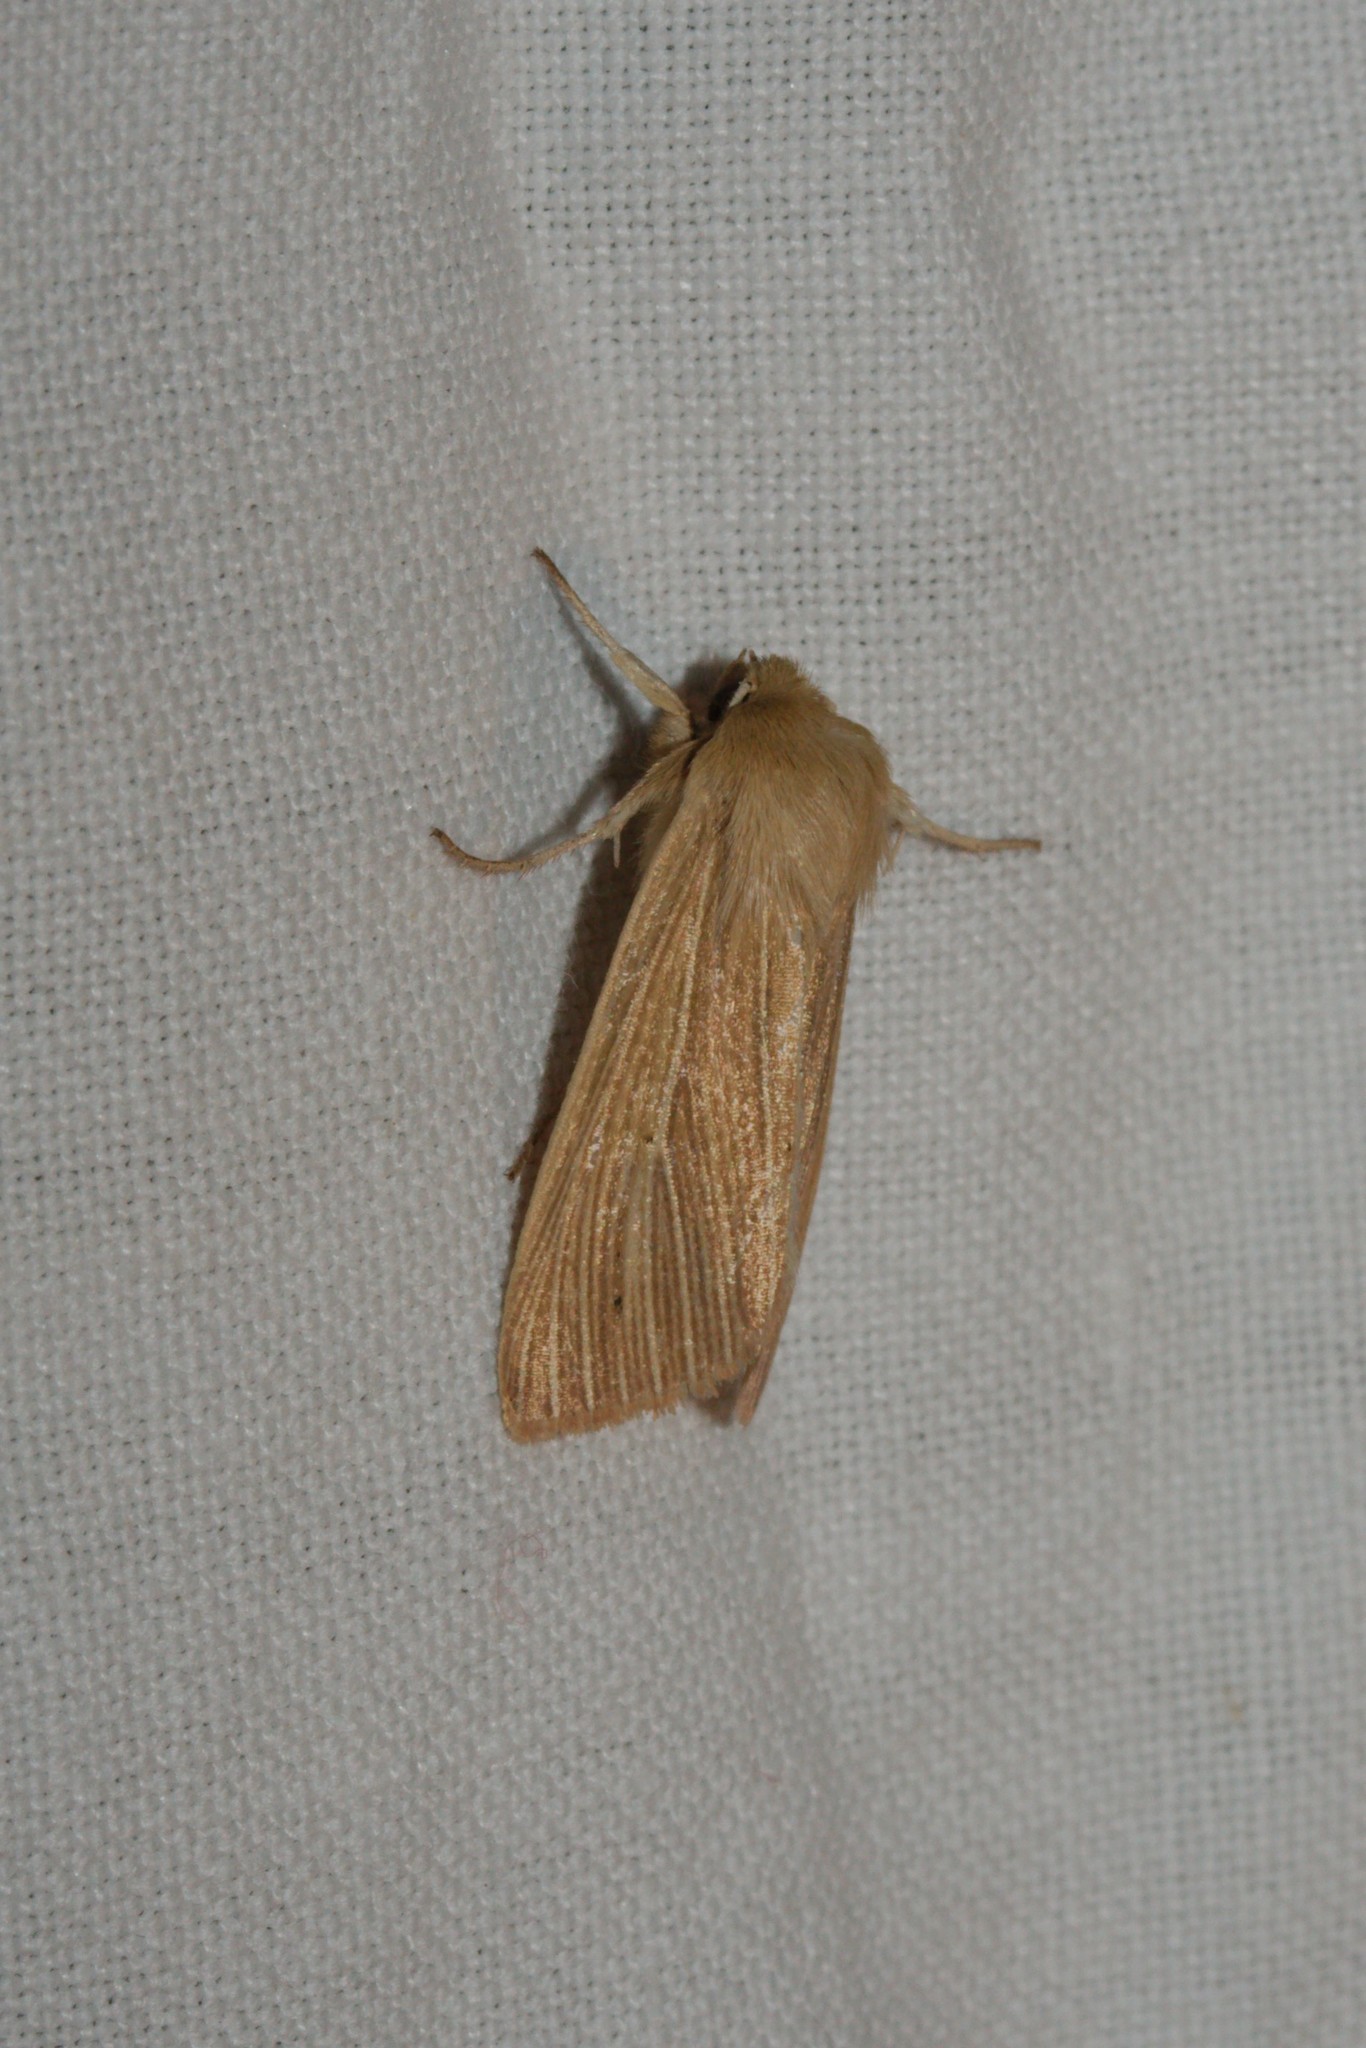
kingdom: Animalia
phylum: Arthropoda
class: Insecta
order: Lepidoptera
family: Noctuidae
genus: Mythimna
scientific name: Mythimna pallens
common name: Common wainscot
